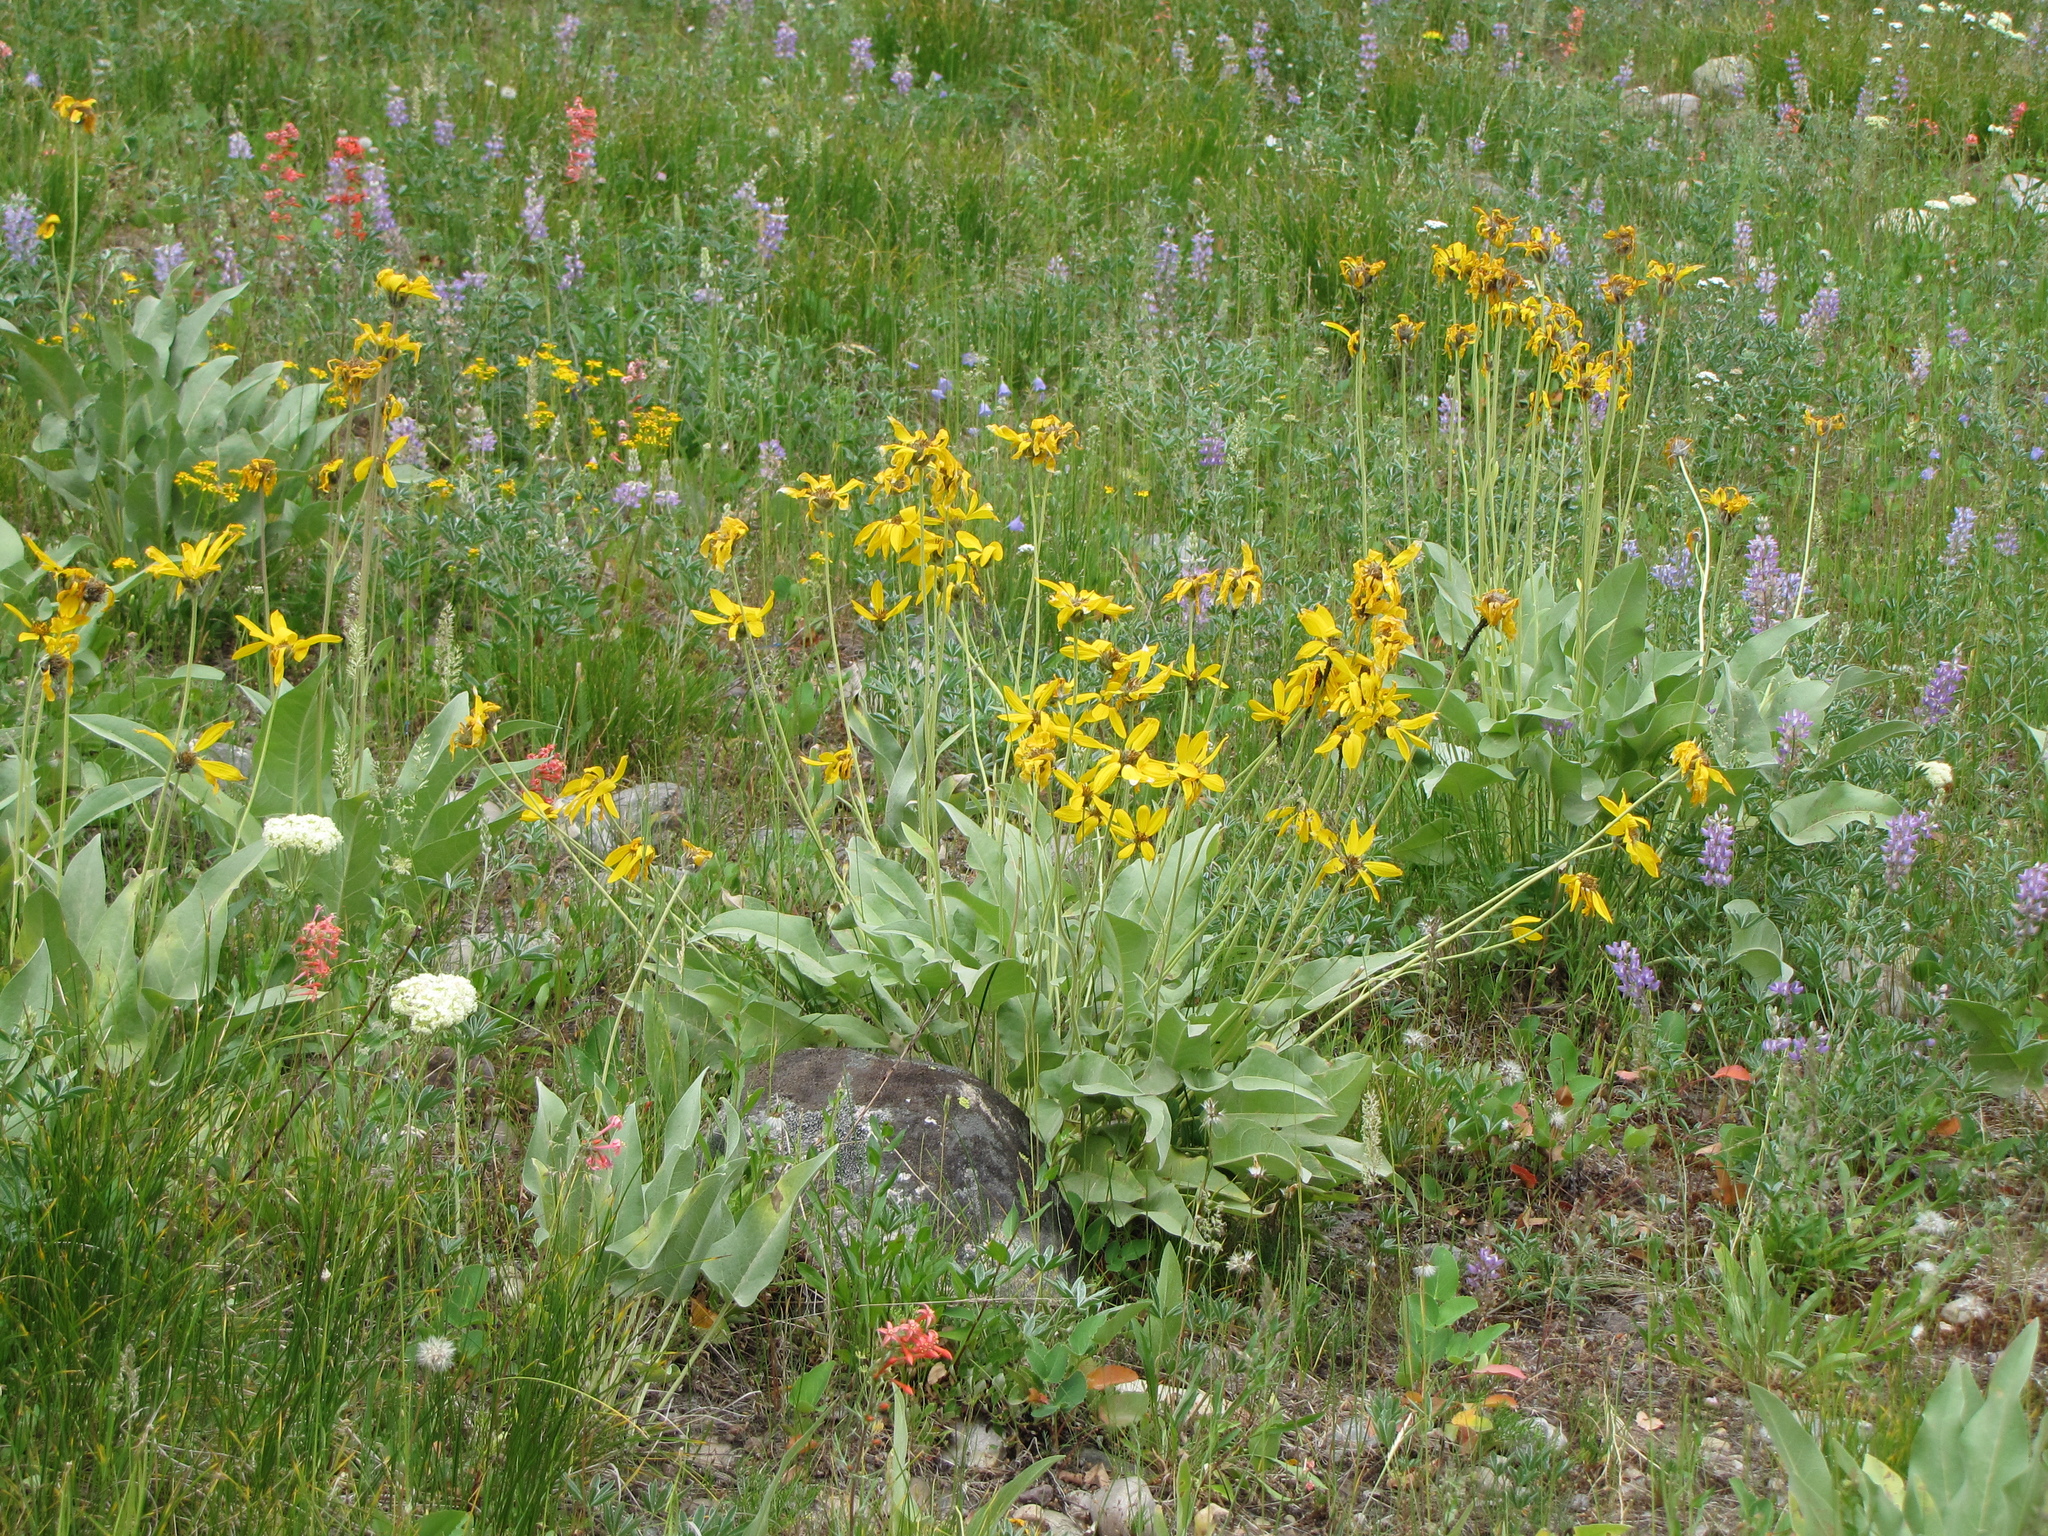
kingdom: Plantae
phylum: Tracheophyta
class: Magnoliopsida
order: Asterales
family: Asteraceae
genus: Wyethia
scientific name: Wyethia sagittata
